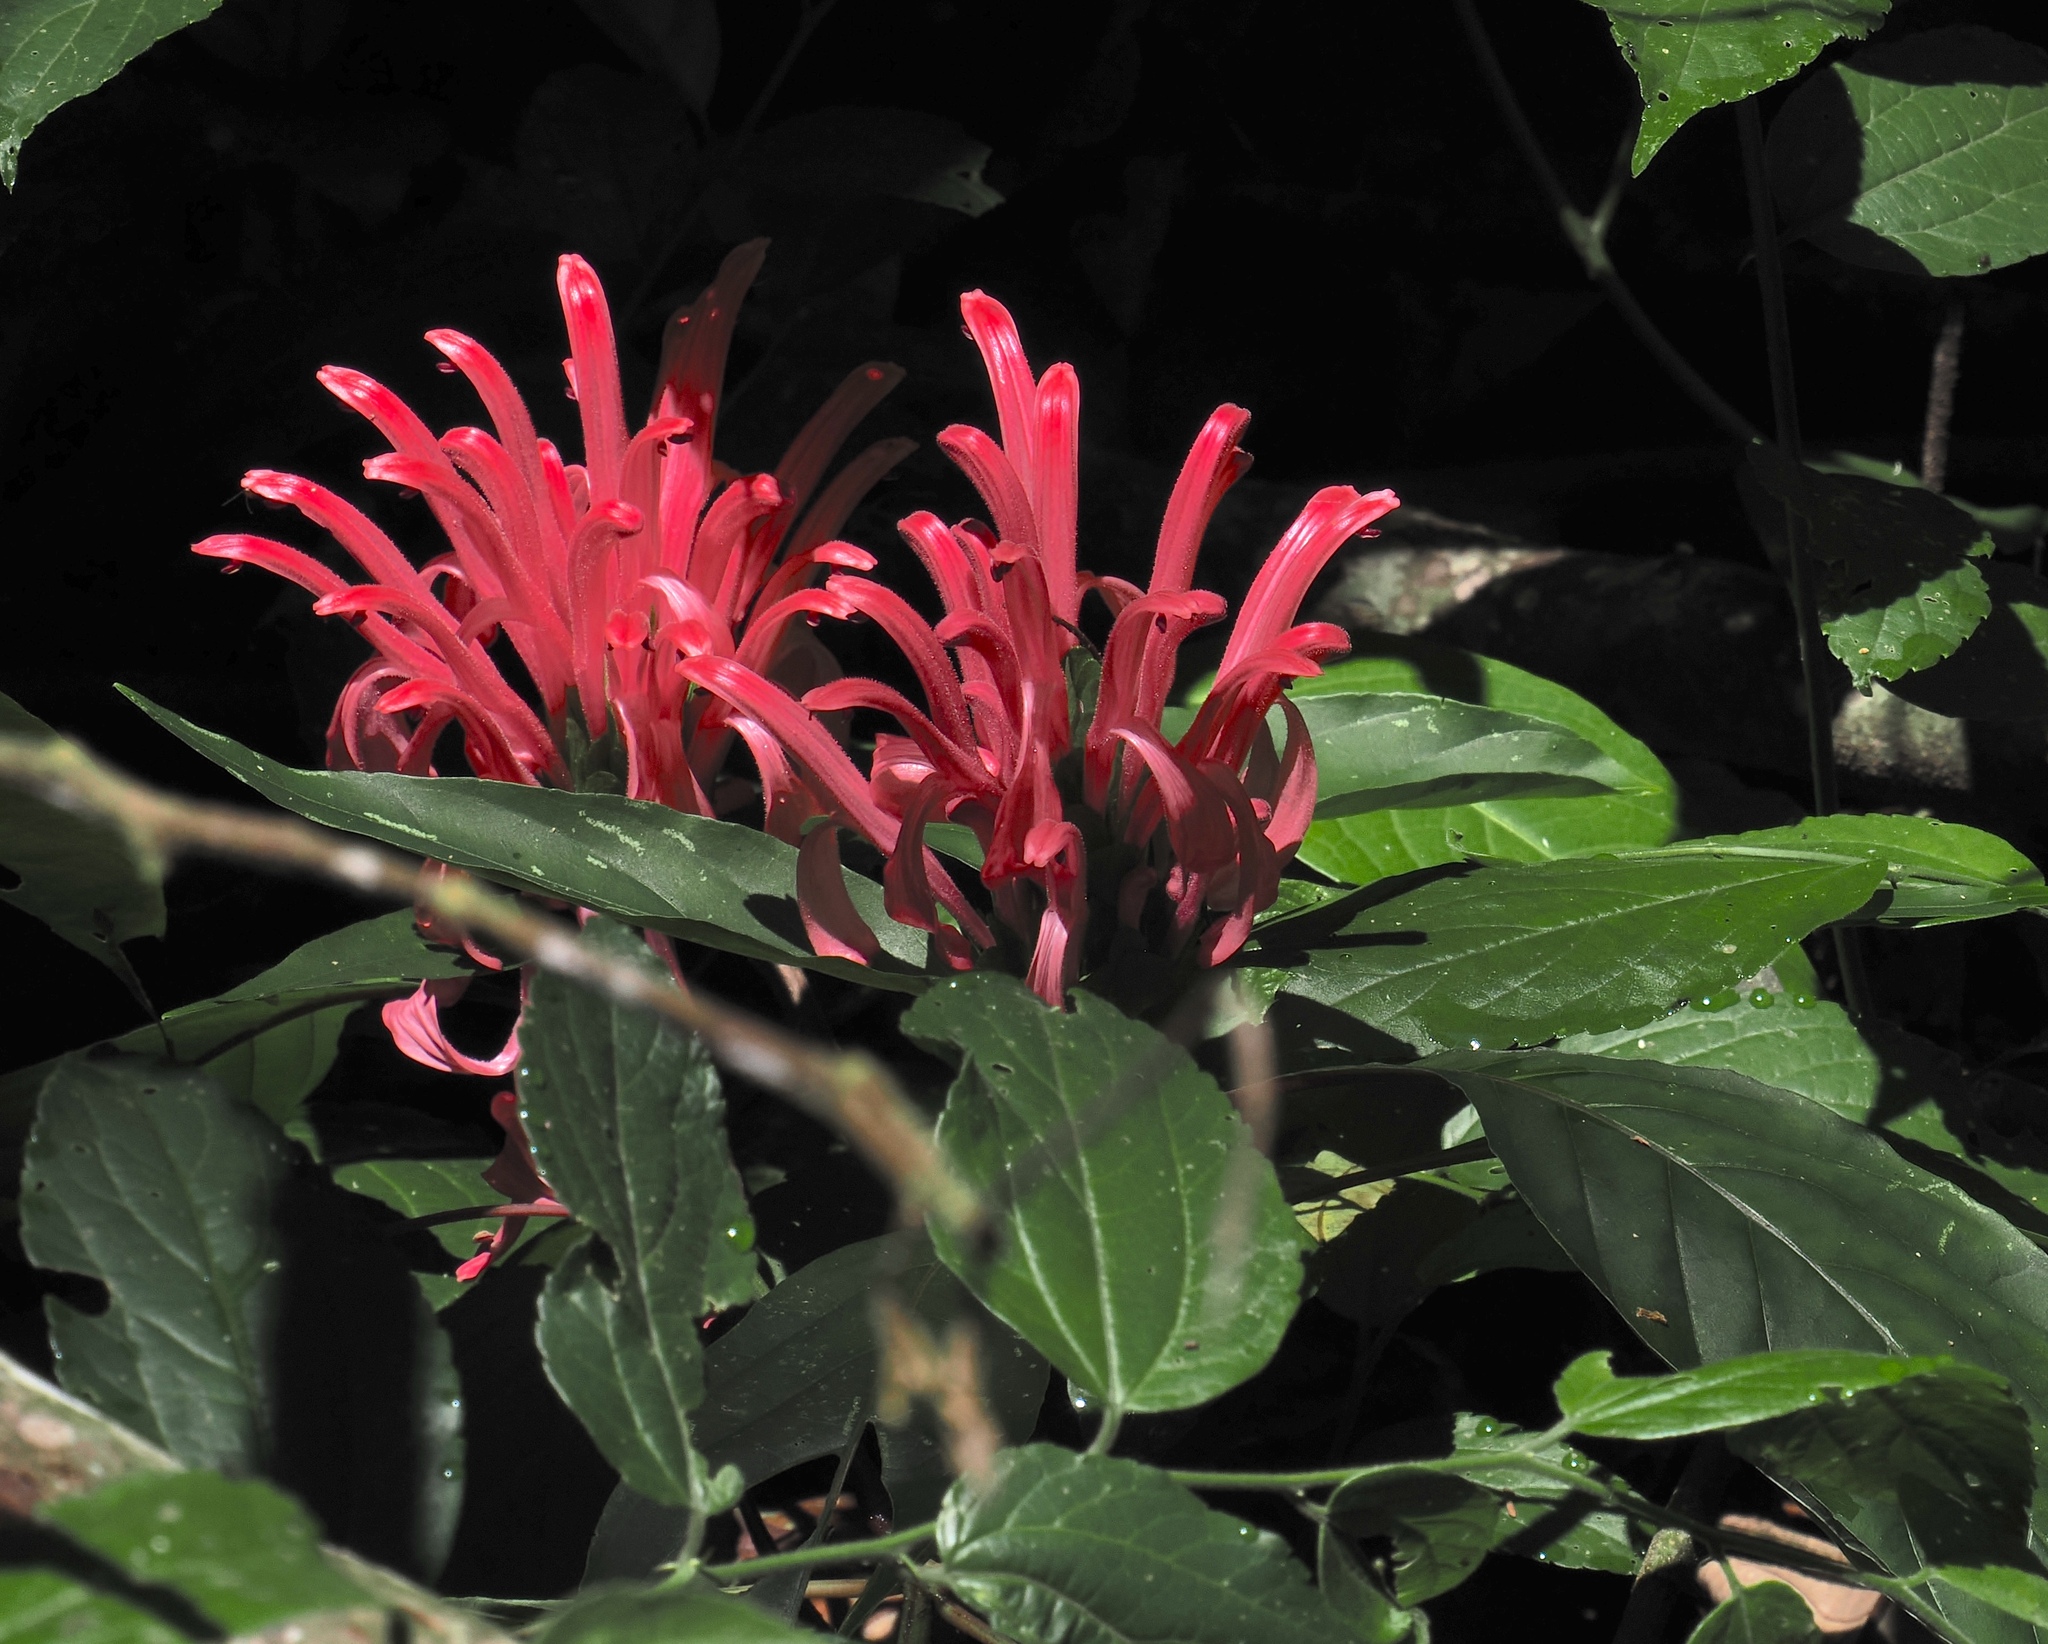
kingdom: Plantae
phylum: Tracheophyta
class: Magnoliopsida
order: Lamiales
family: Acanthaceae
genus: Justicia
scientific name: Justicia carnea
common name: Brazilian-plume
